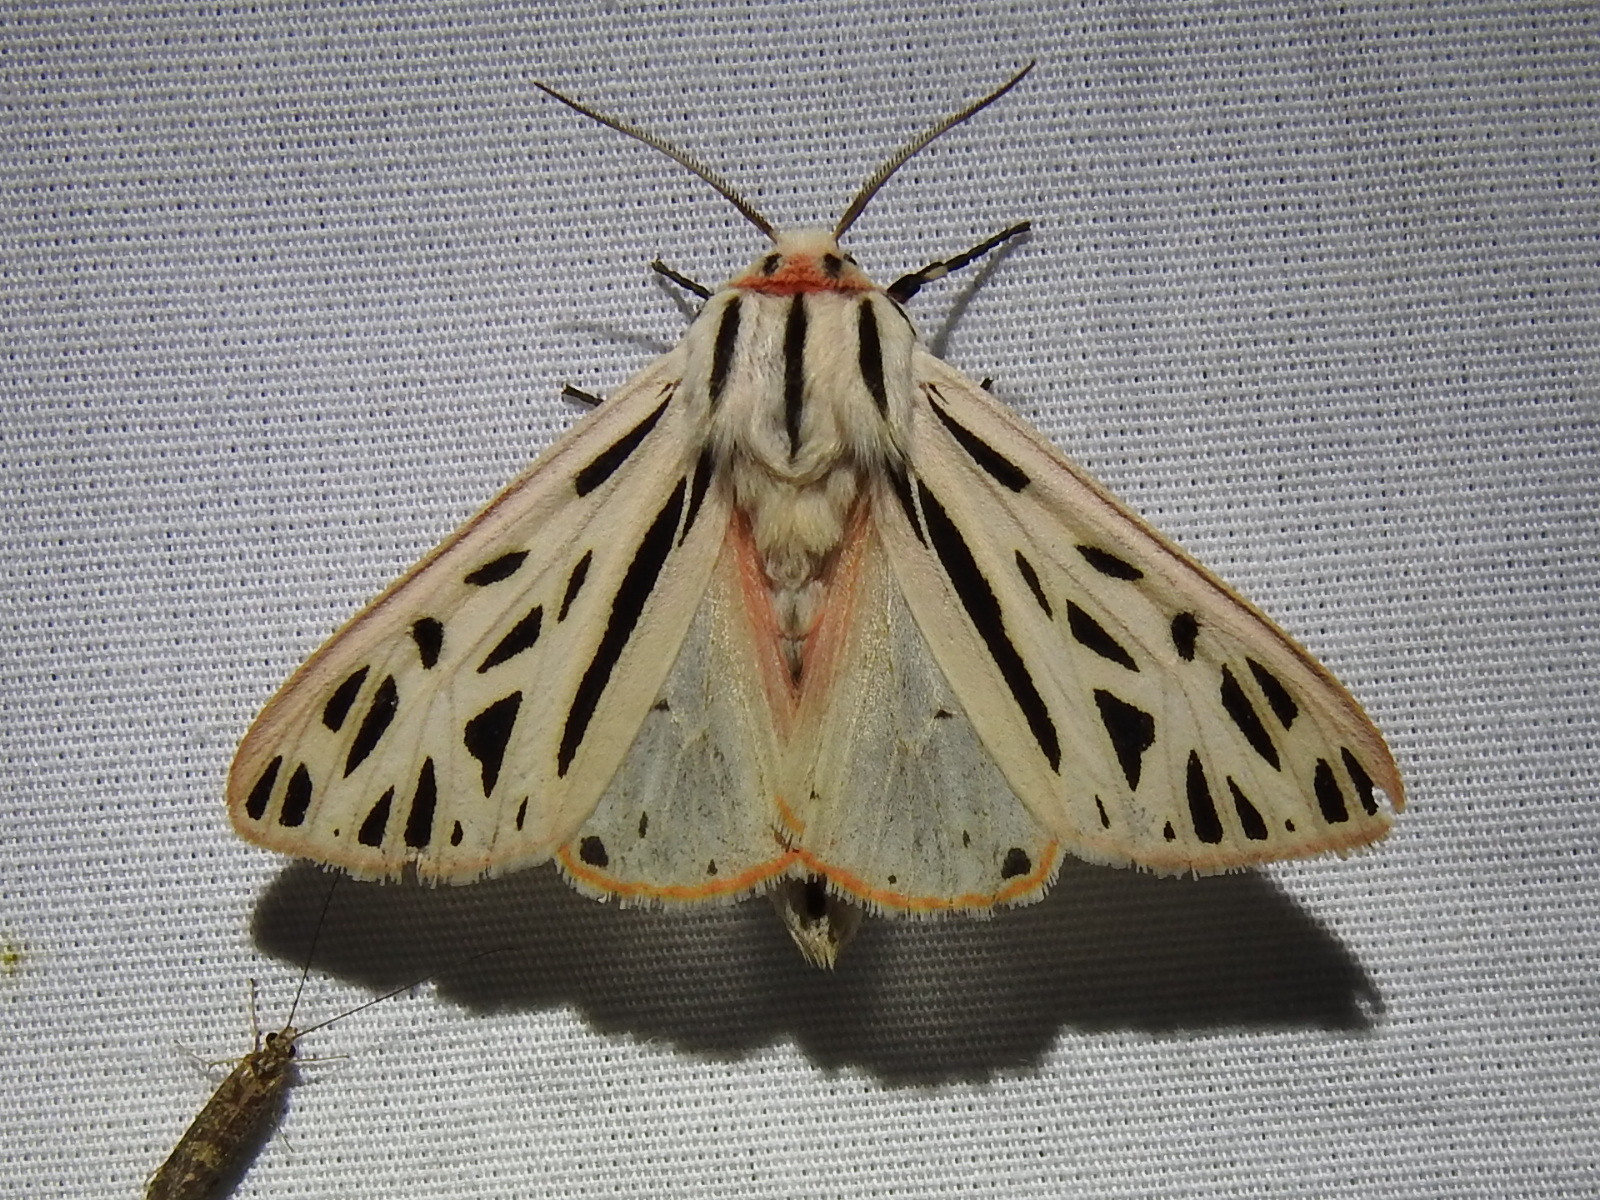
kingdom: Animalia
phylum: Arthropoda
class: Insecta
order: Lepidoptera
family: Erebidae
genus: Apantesis
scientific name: Apantesis arge
